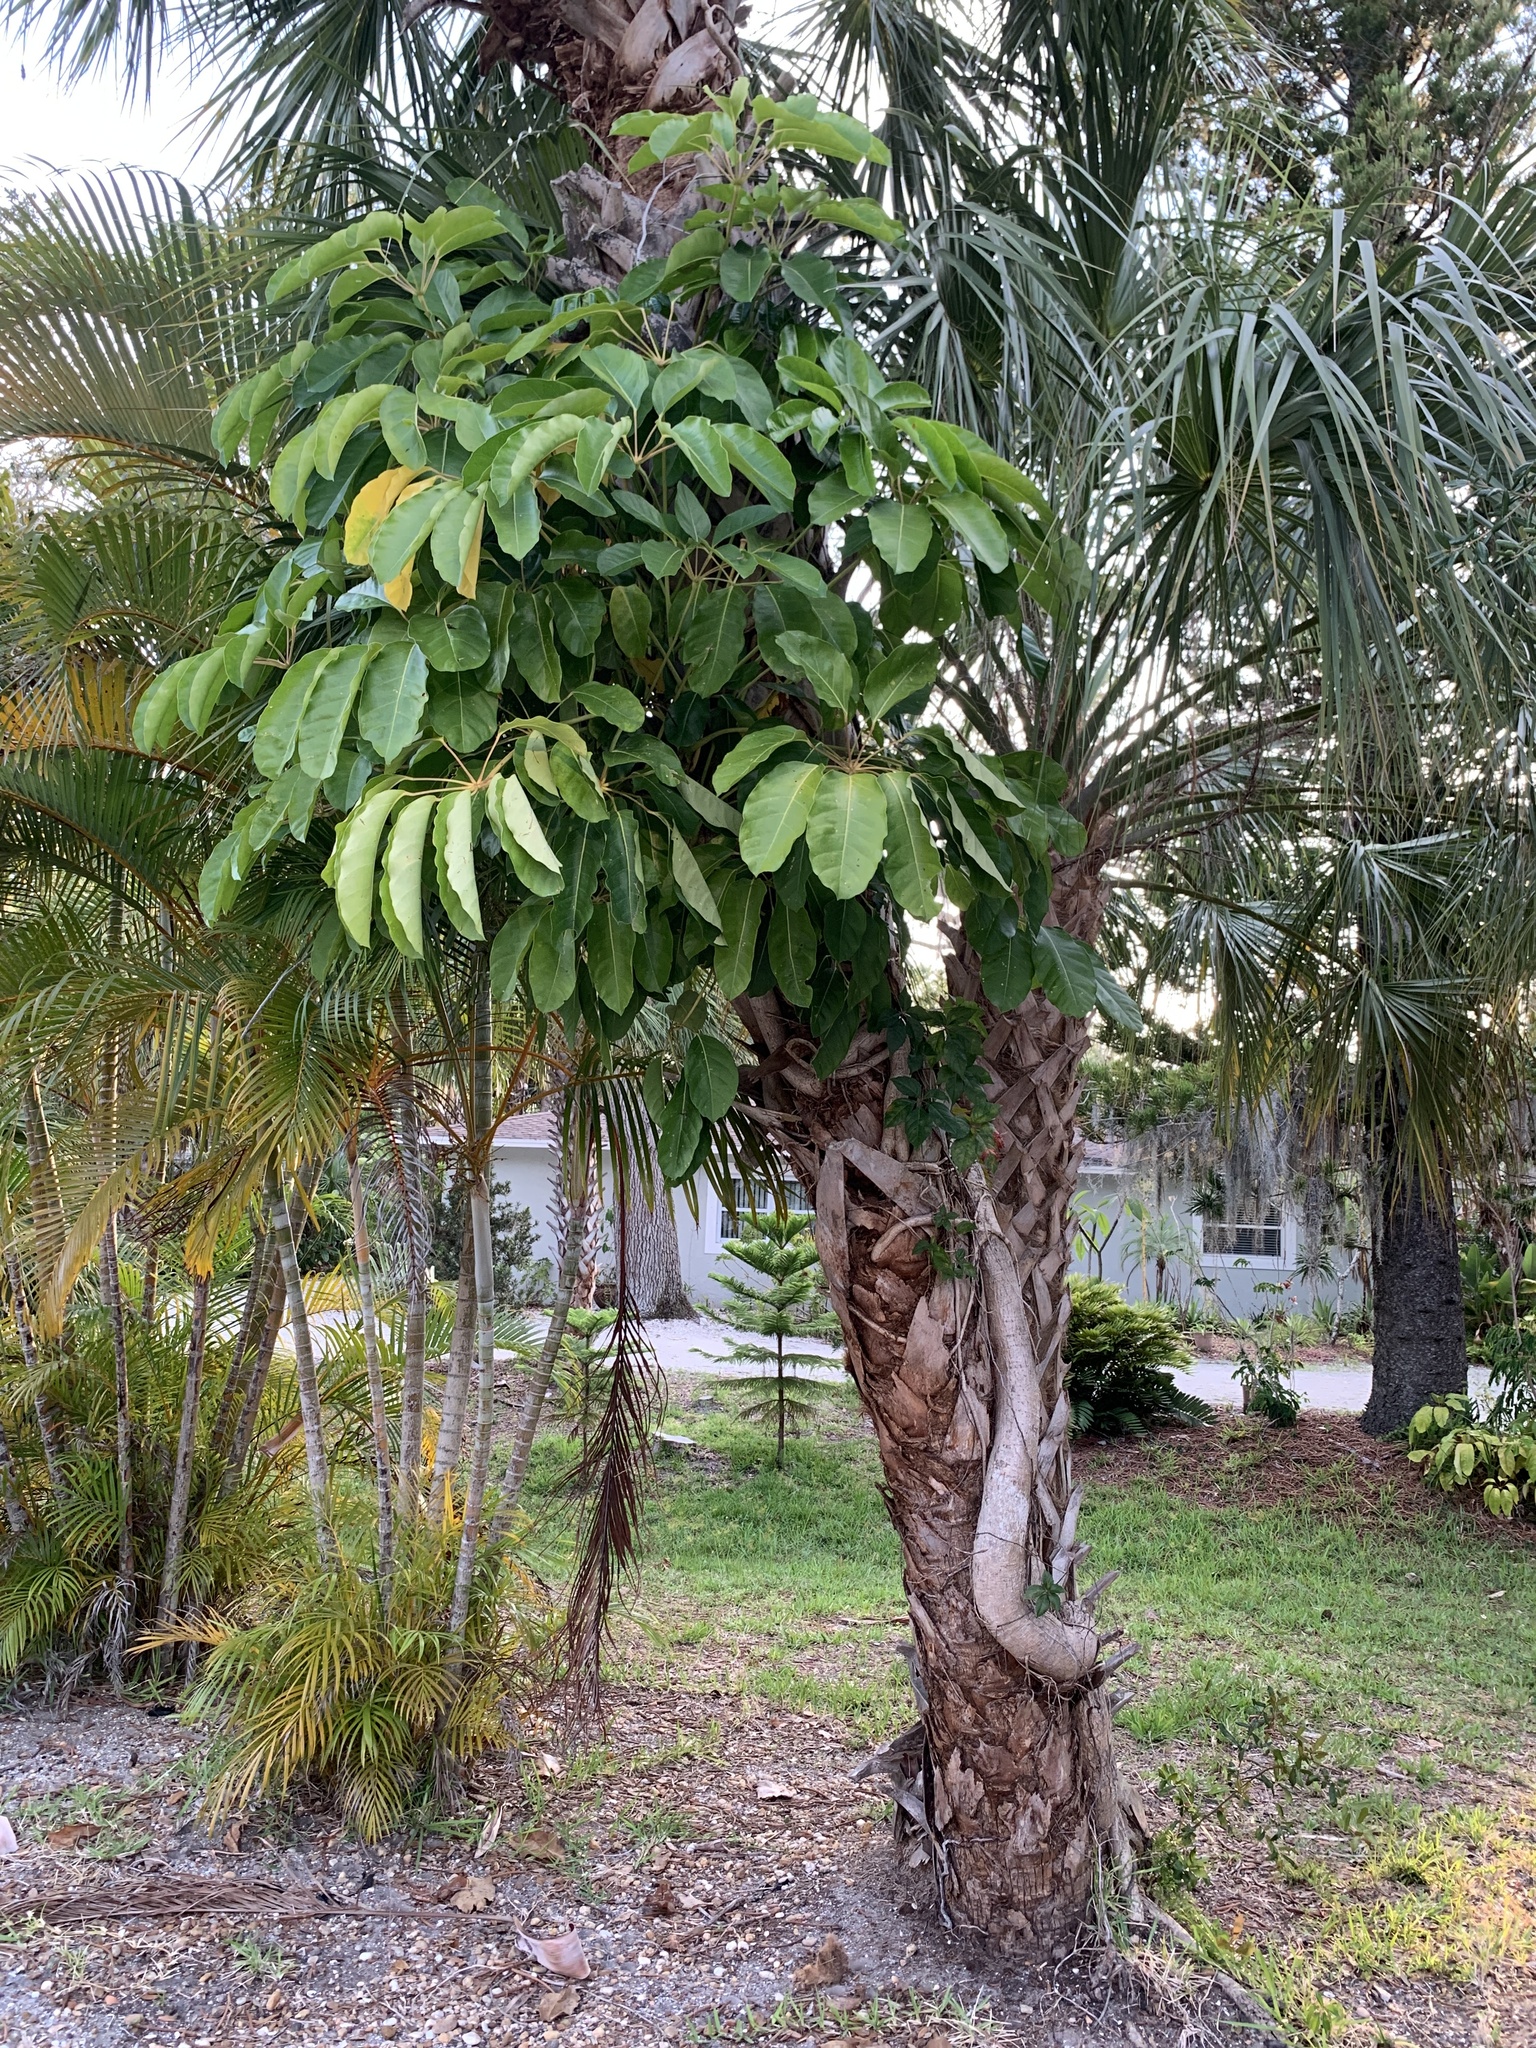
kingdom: Plantae
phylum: Tracheophyta
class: Magnoliopsida
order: Apiales
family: Araliaceae
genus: Heptapleurum
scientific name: Heptapleurum actinophyllum
